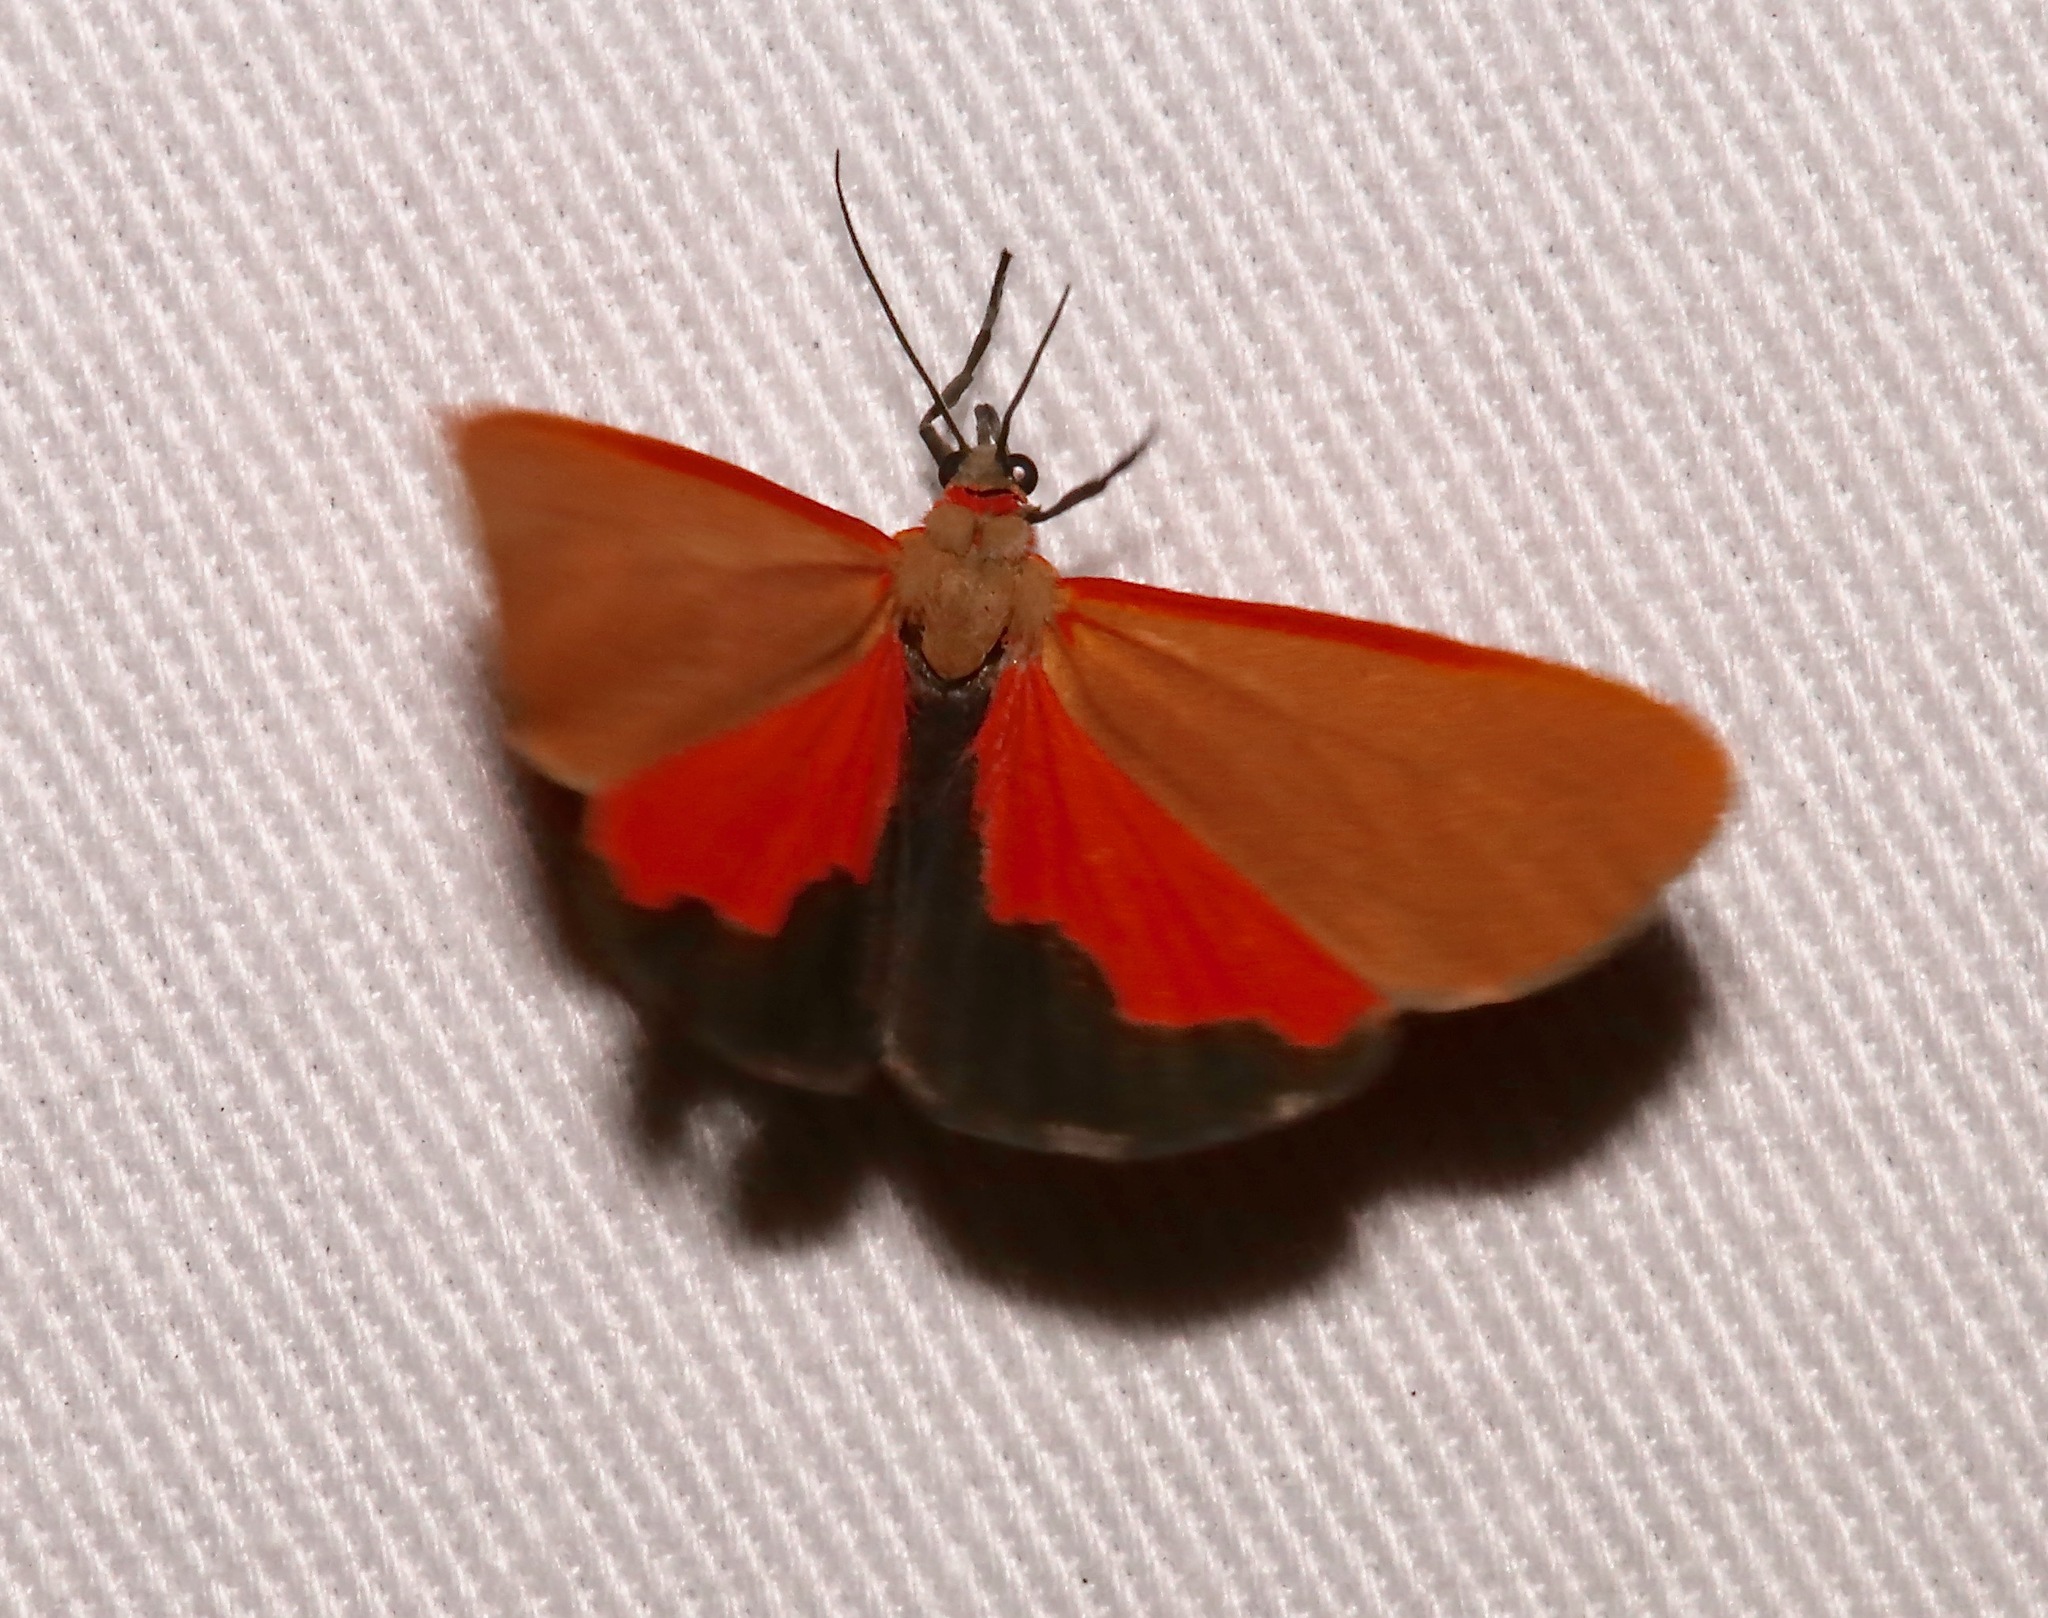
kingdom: Animalia
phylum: Arthropoda
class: Insecta
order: Lepidoptera
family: Erebidae
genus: Virbia
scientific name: Virbia ostenta
